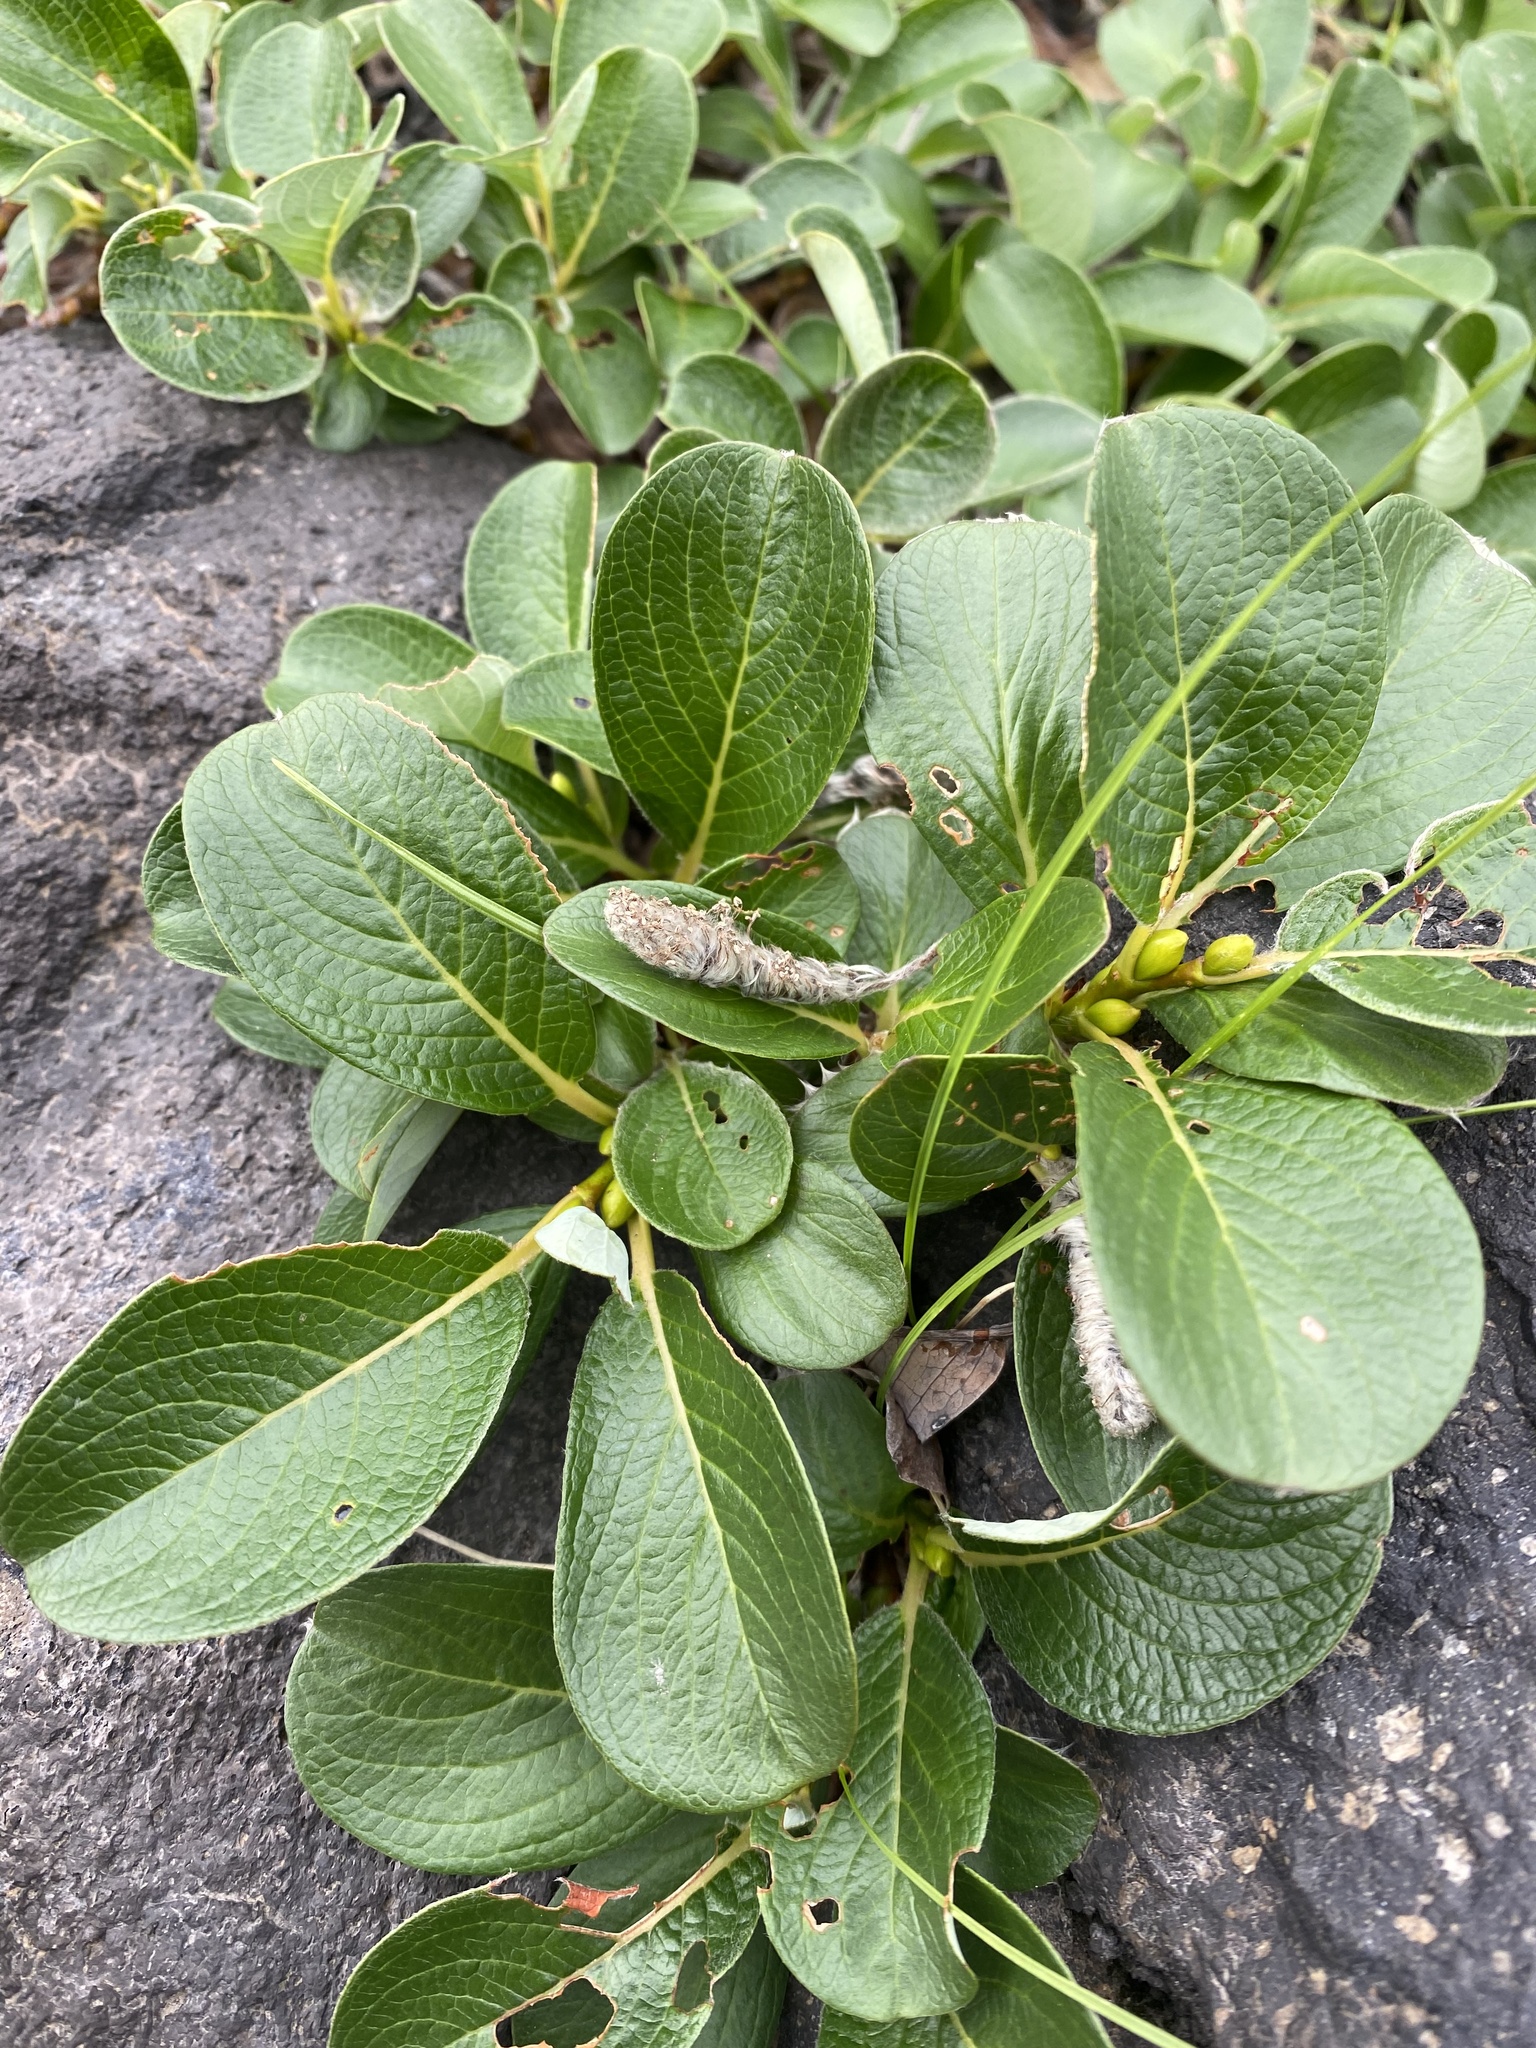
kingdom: Plantae
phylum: Tracheophyta
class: Magnoliopsida
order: Malpighiales
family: Salicaceae
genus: Salix
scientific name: Salix reticulata
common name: Net-leaved willow
